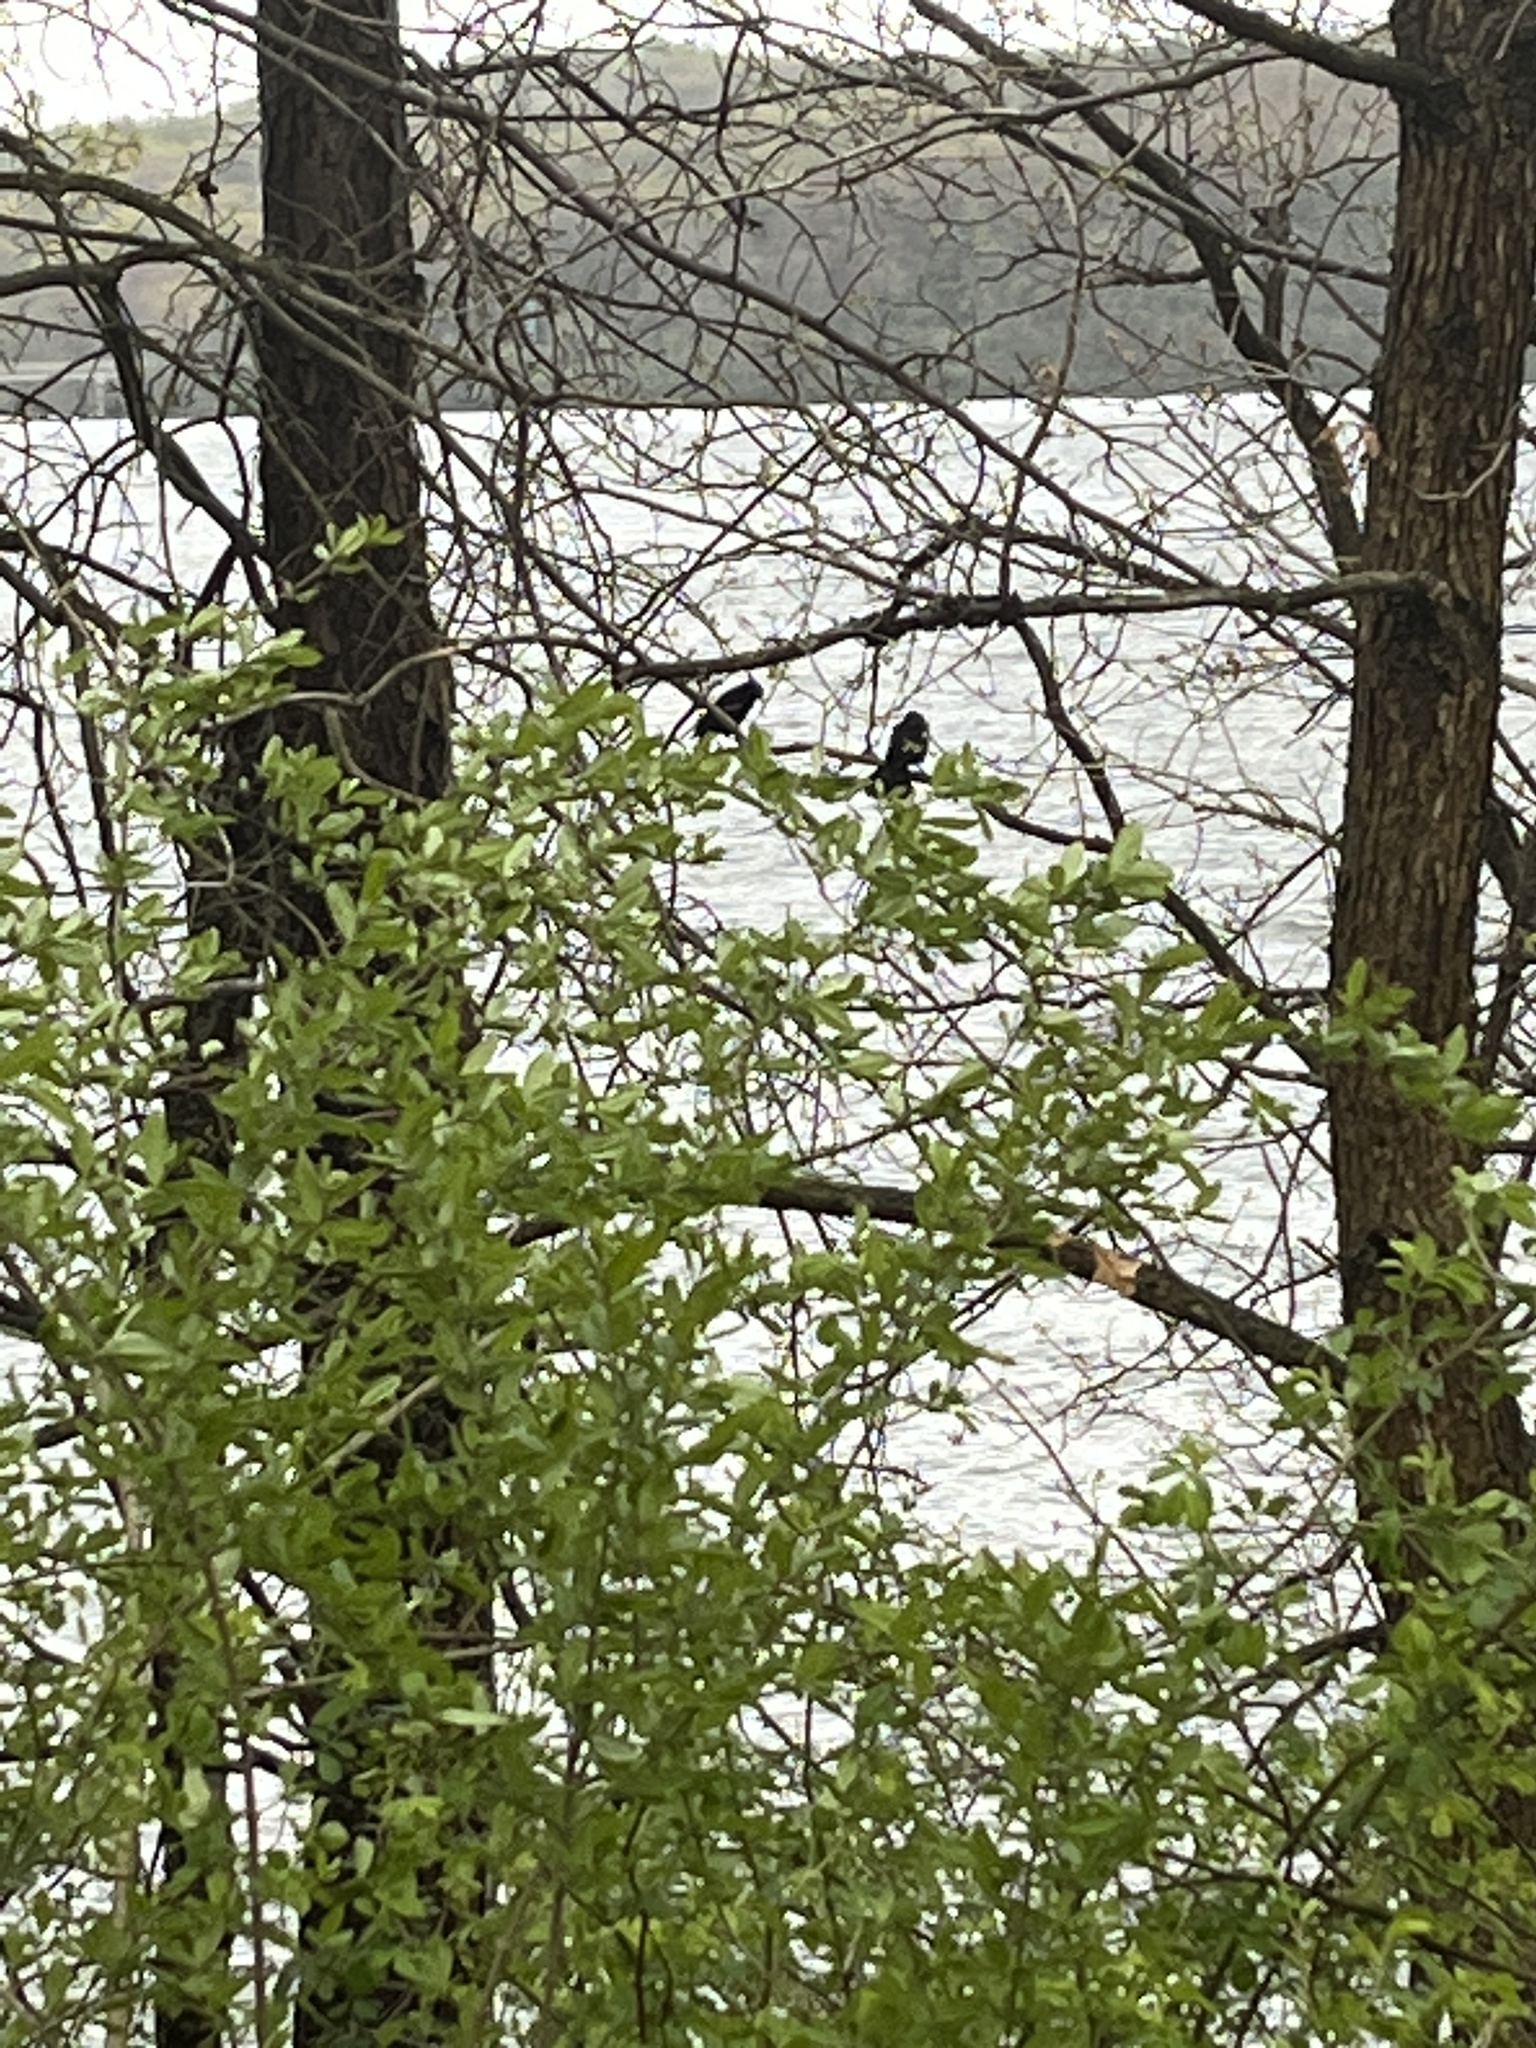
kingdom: Animalia
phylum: Chordata
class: Aves
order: Passeriformes
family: Icteridae
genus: Agelaius
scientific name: Agelaius phoeniceus
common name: Red-winged blackbird
